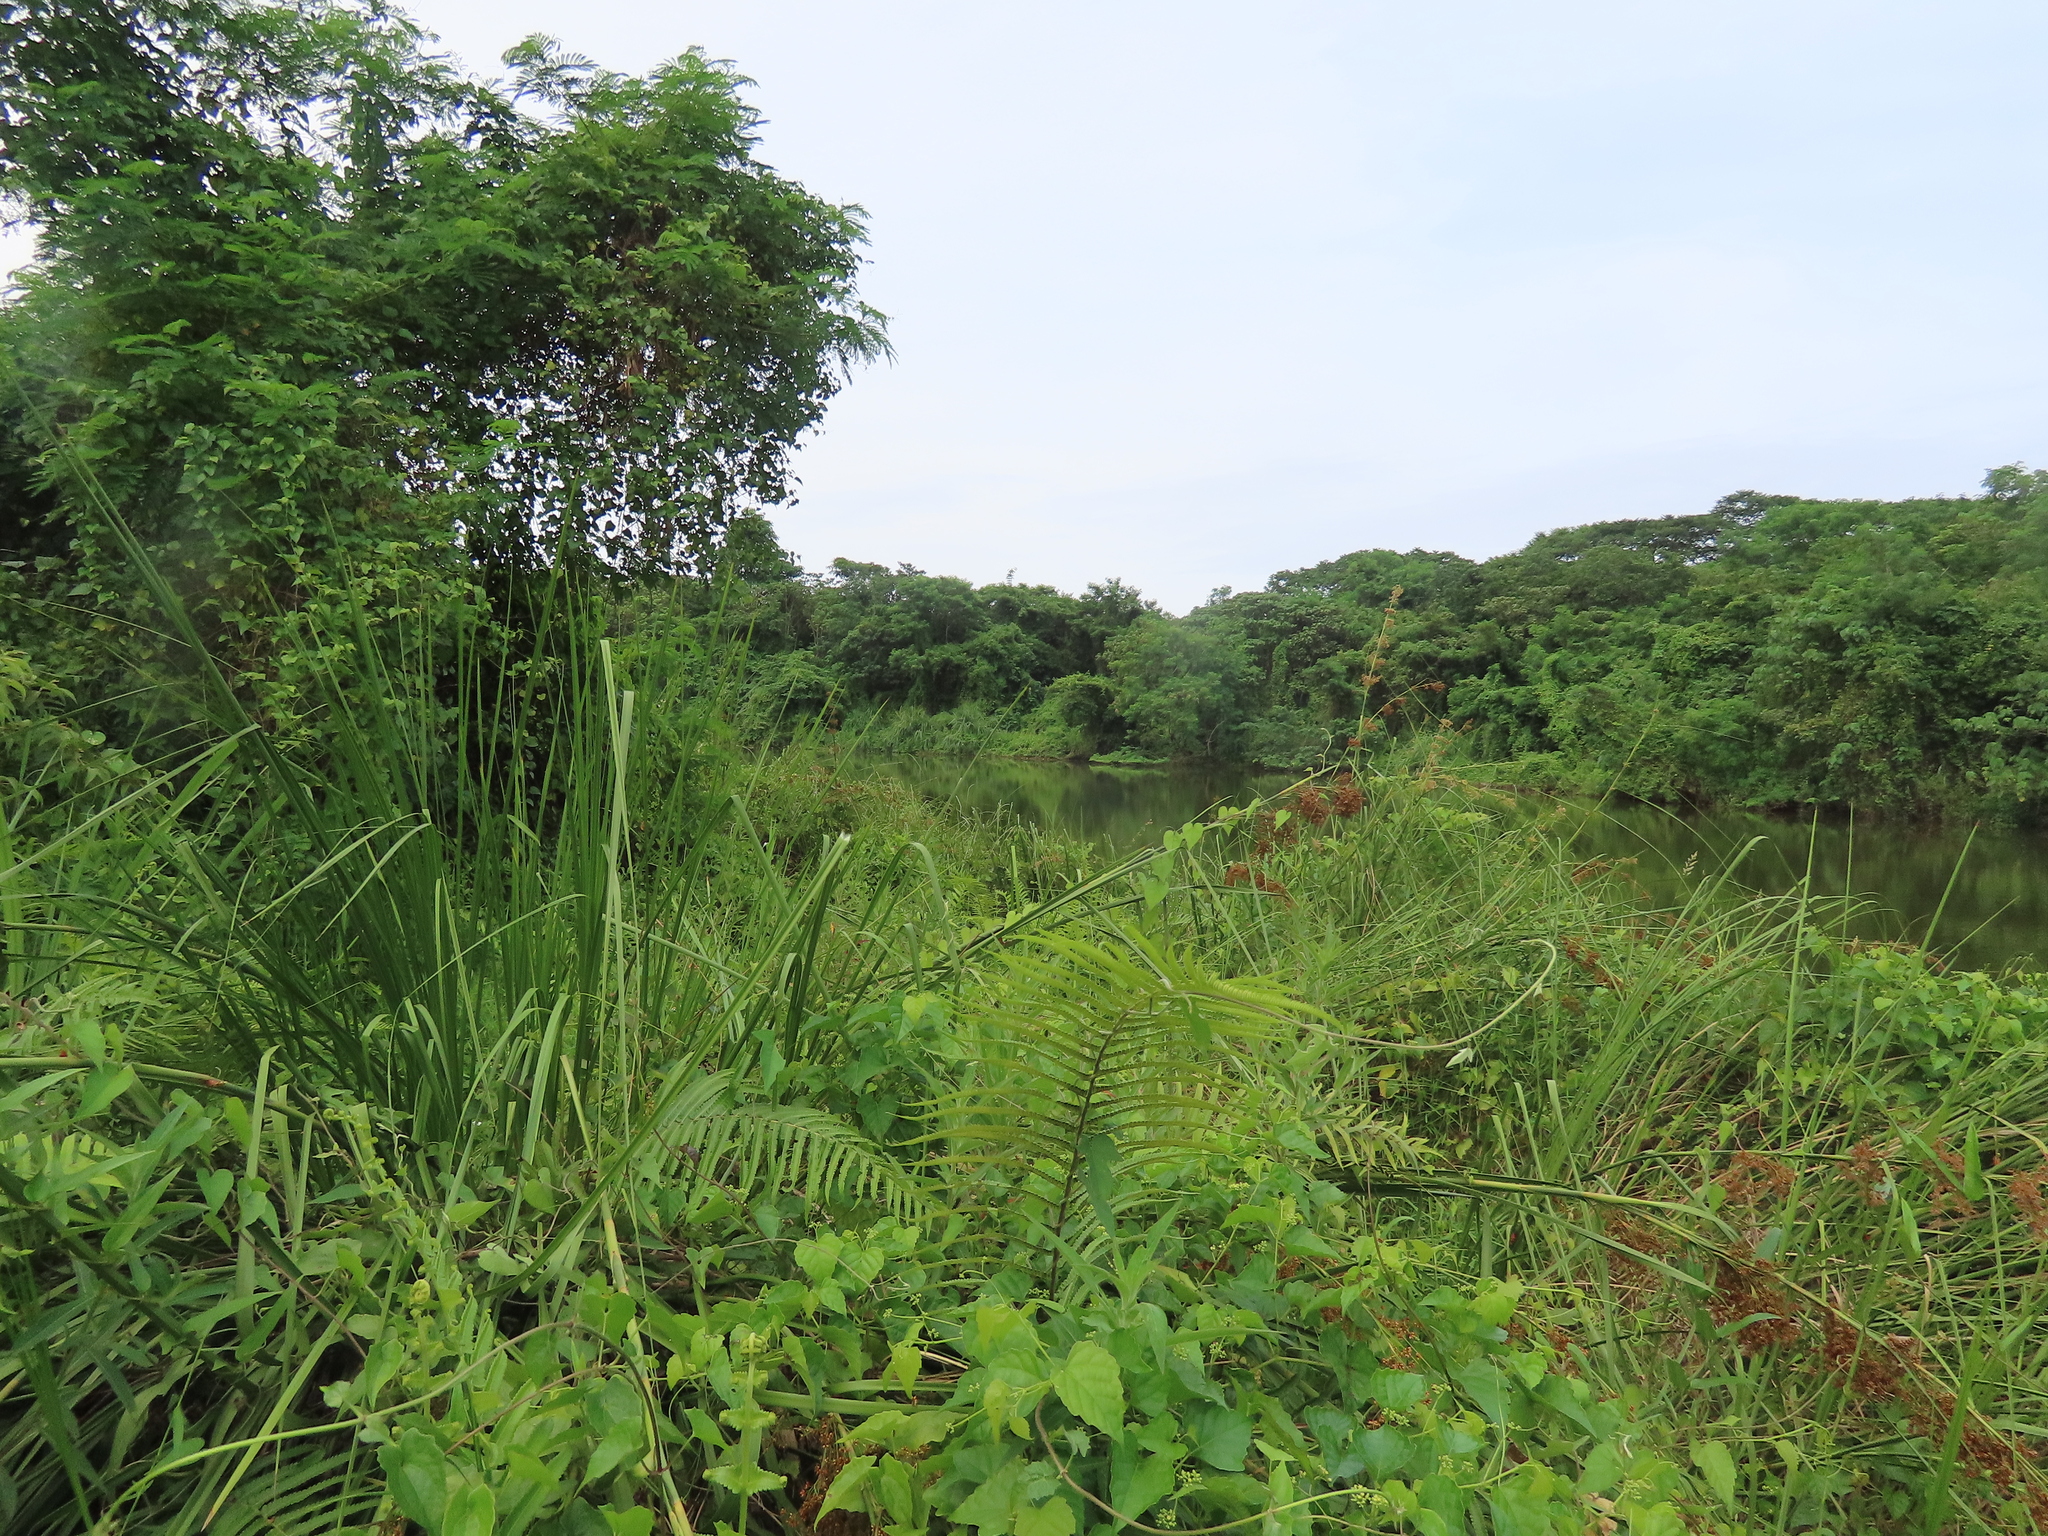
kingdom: Plantae
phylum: Tracheophyta
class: Liliopsida
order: Poales
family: Cyperaceae
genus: Cladium
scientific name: Cladium mariscus
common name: Great fen-sedge
